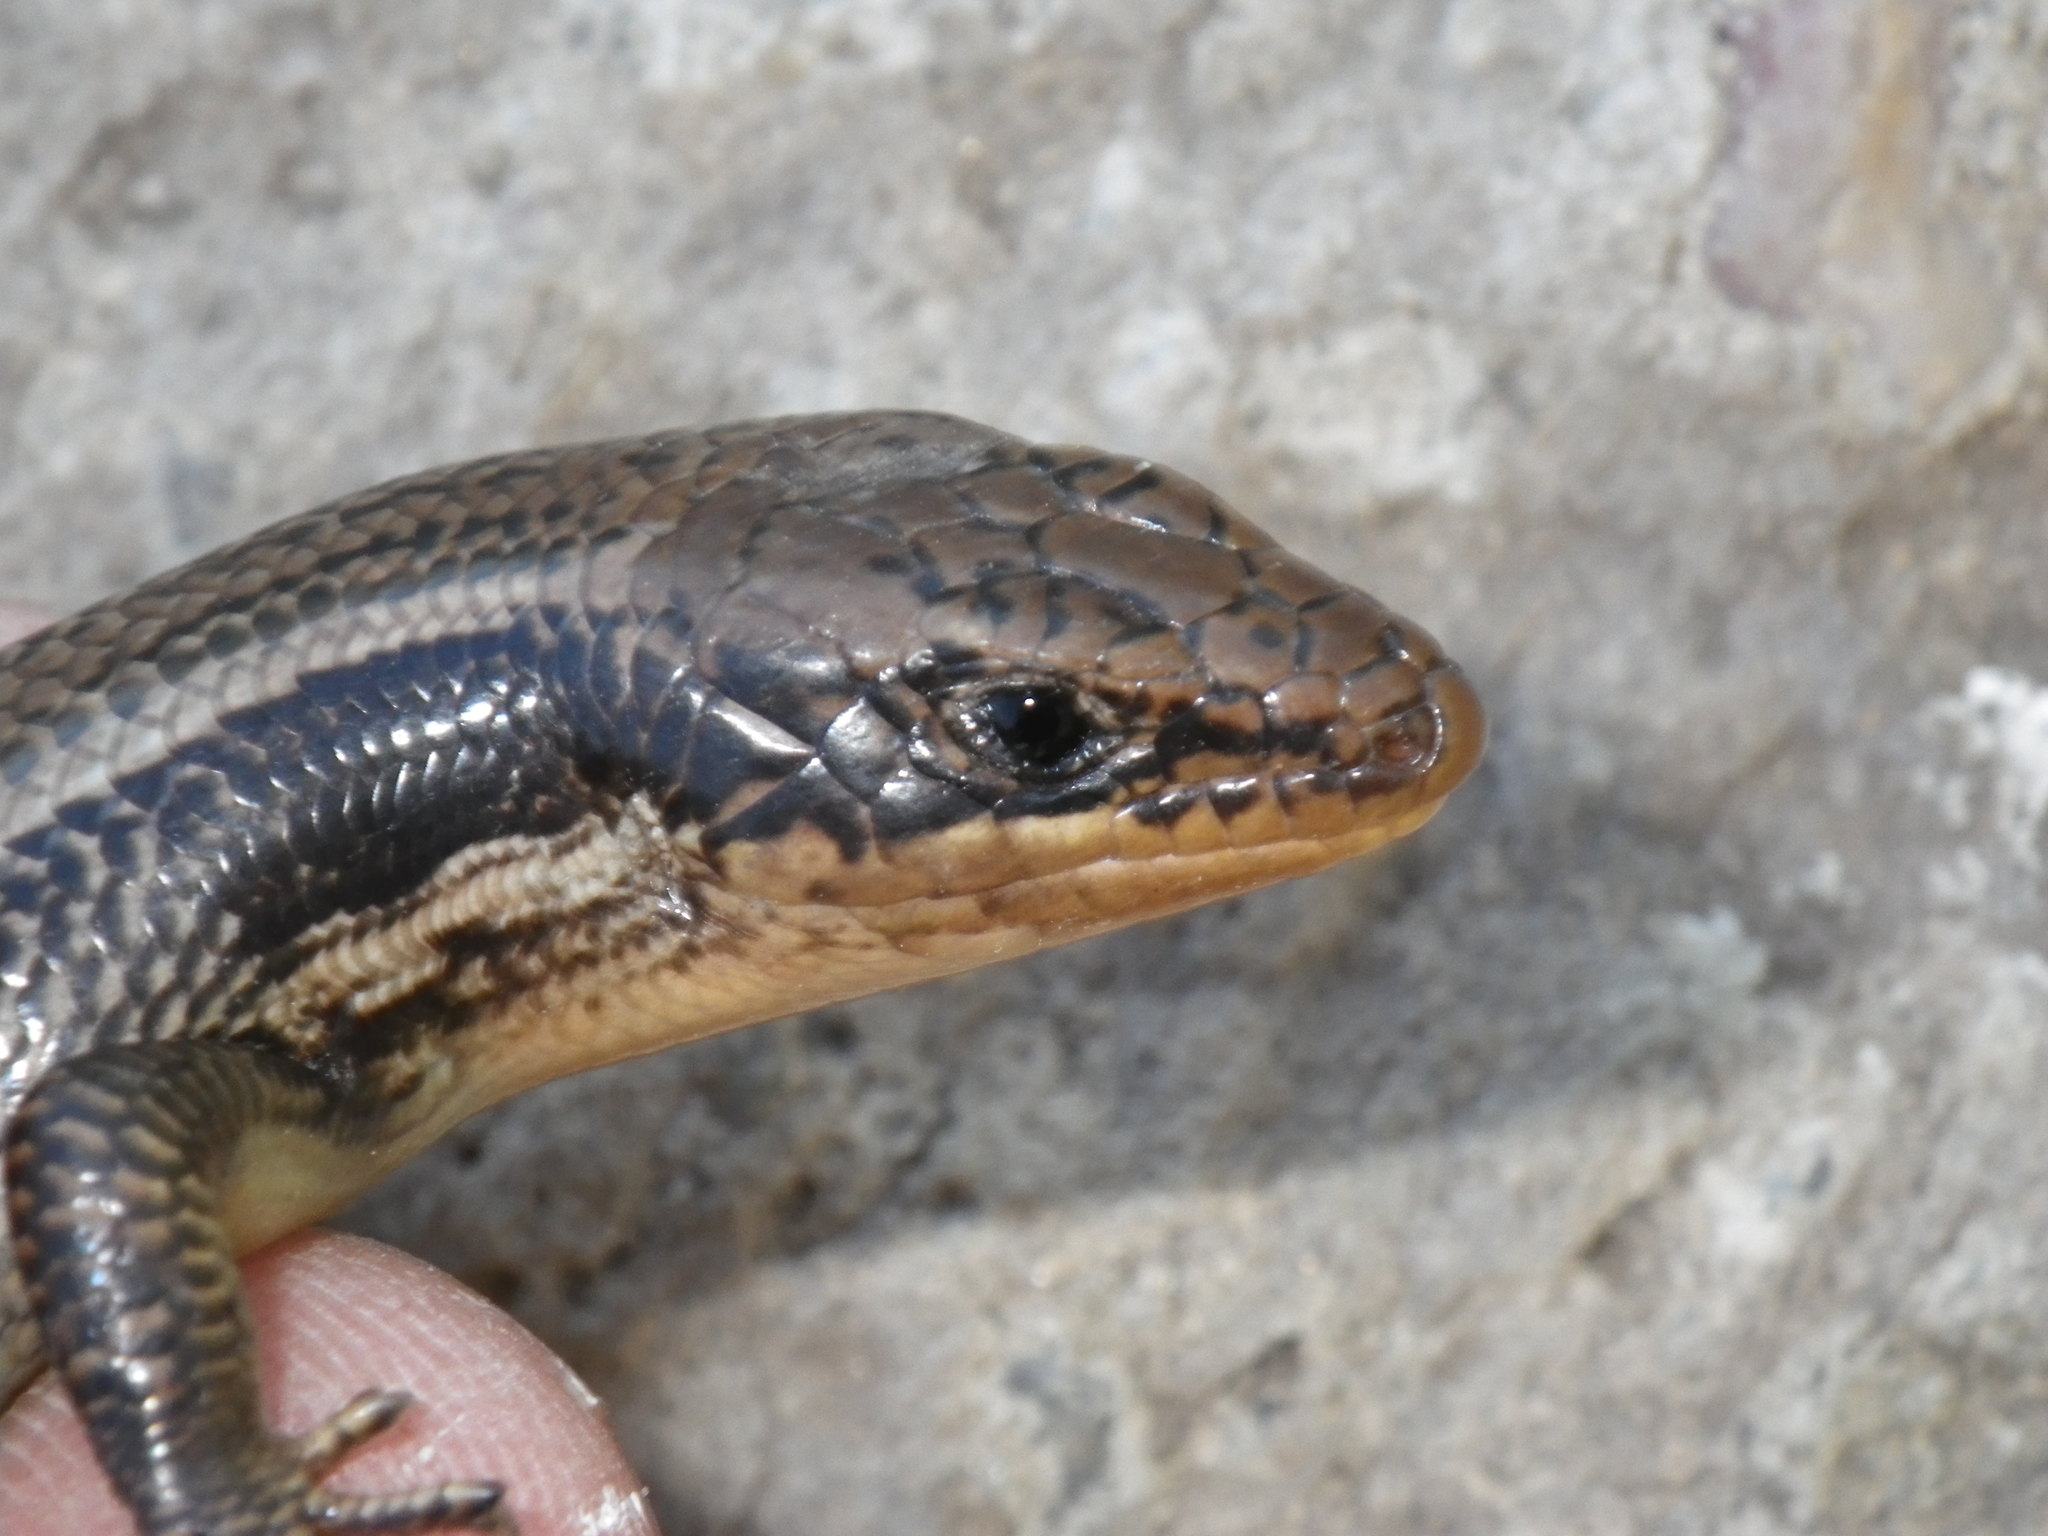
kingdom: Animalia
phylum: Chordata
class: Squamata
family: Scincidae
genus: Plestiodon
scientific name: Plestiodon gilberti
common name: Gilbert's skink
